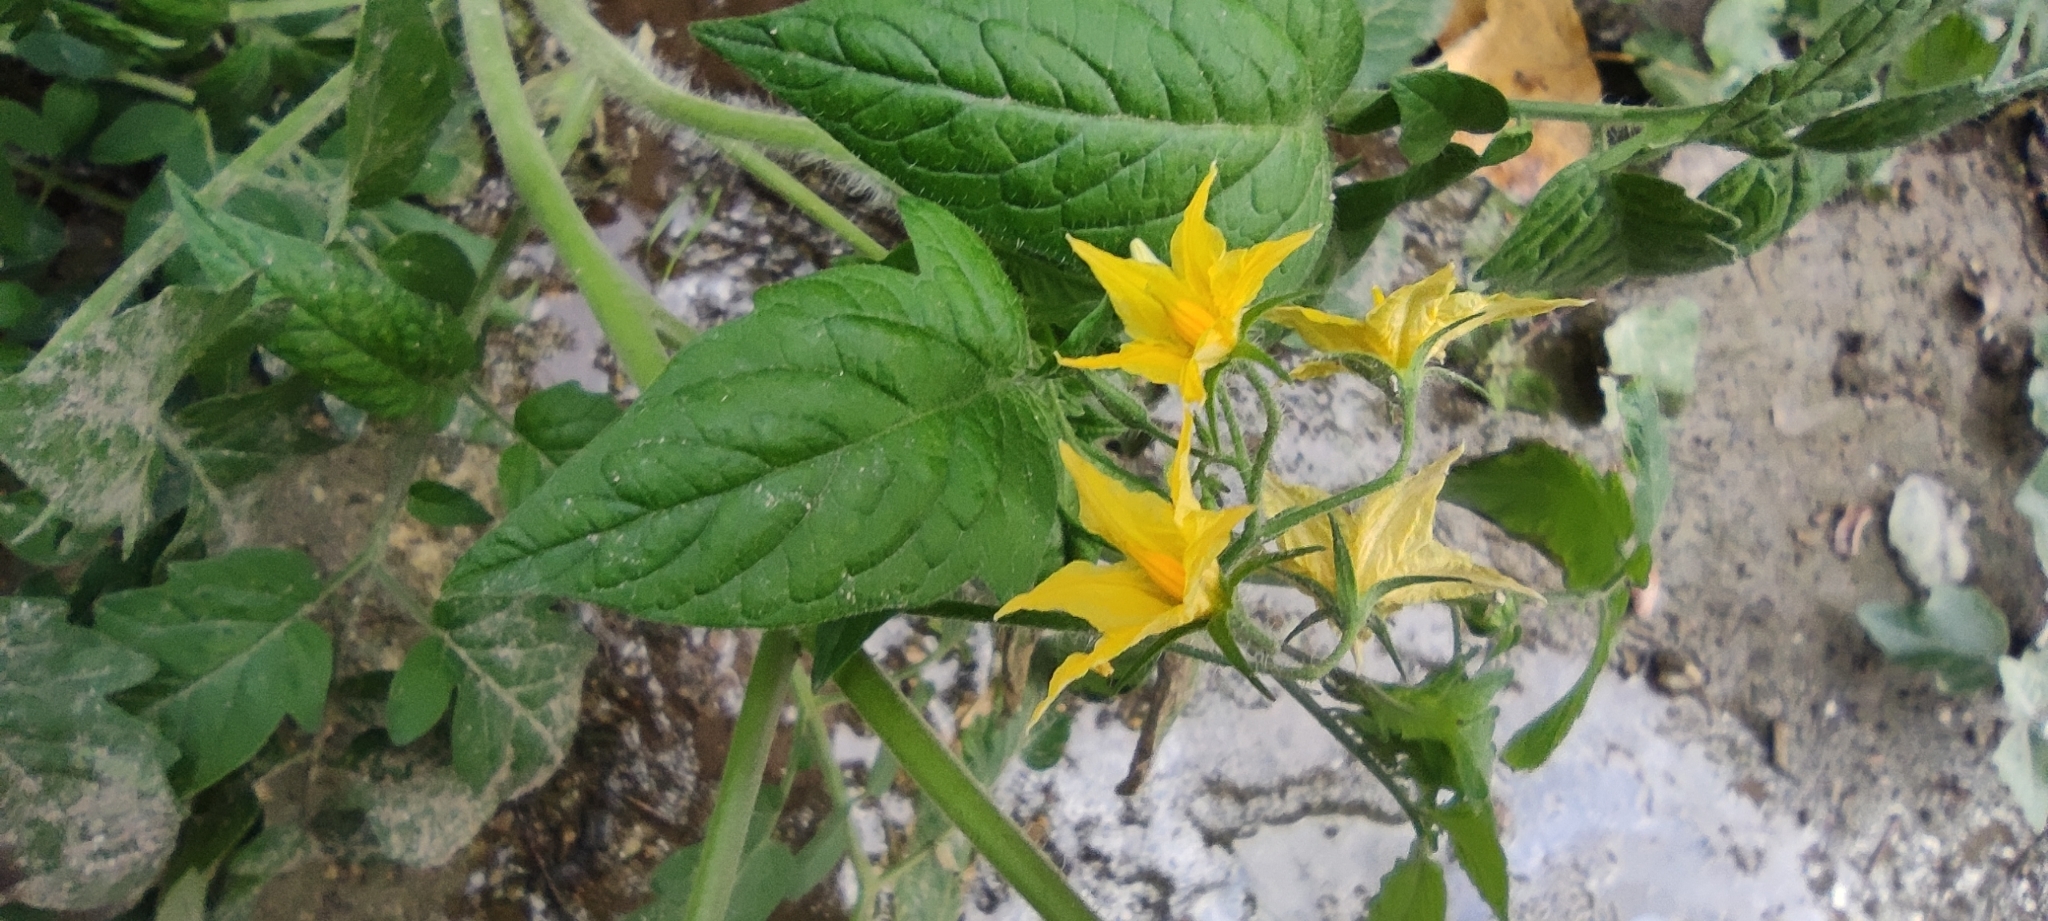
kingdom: Plantae
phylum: Tracheophyta
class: Magnoliopsida
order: Solanales
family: Solanaceae
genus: Solanum
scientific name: Solanum lycopersicum
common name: Garden tomato
